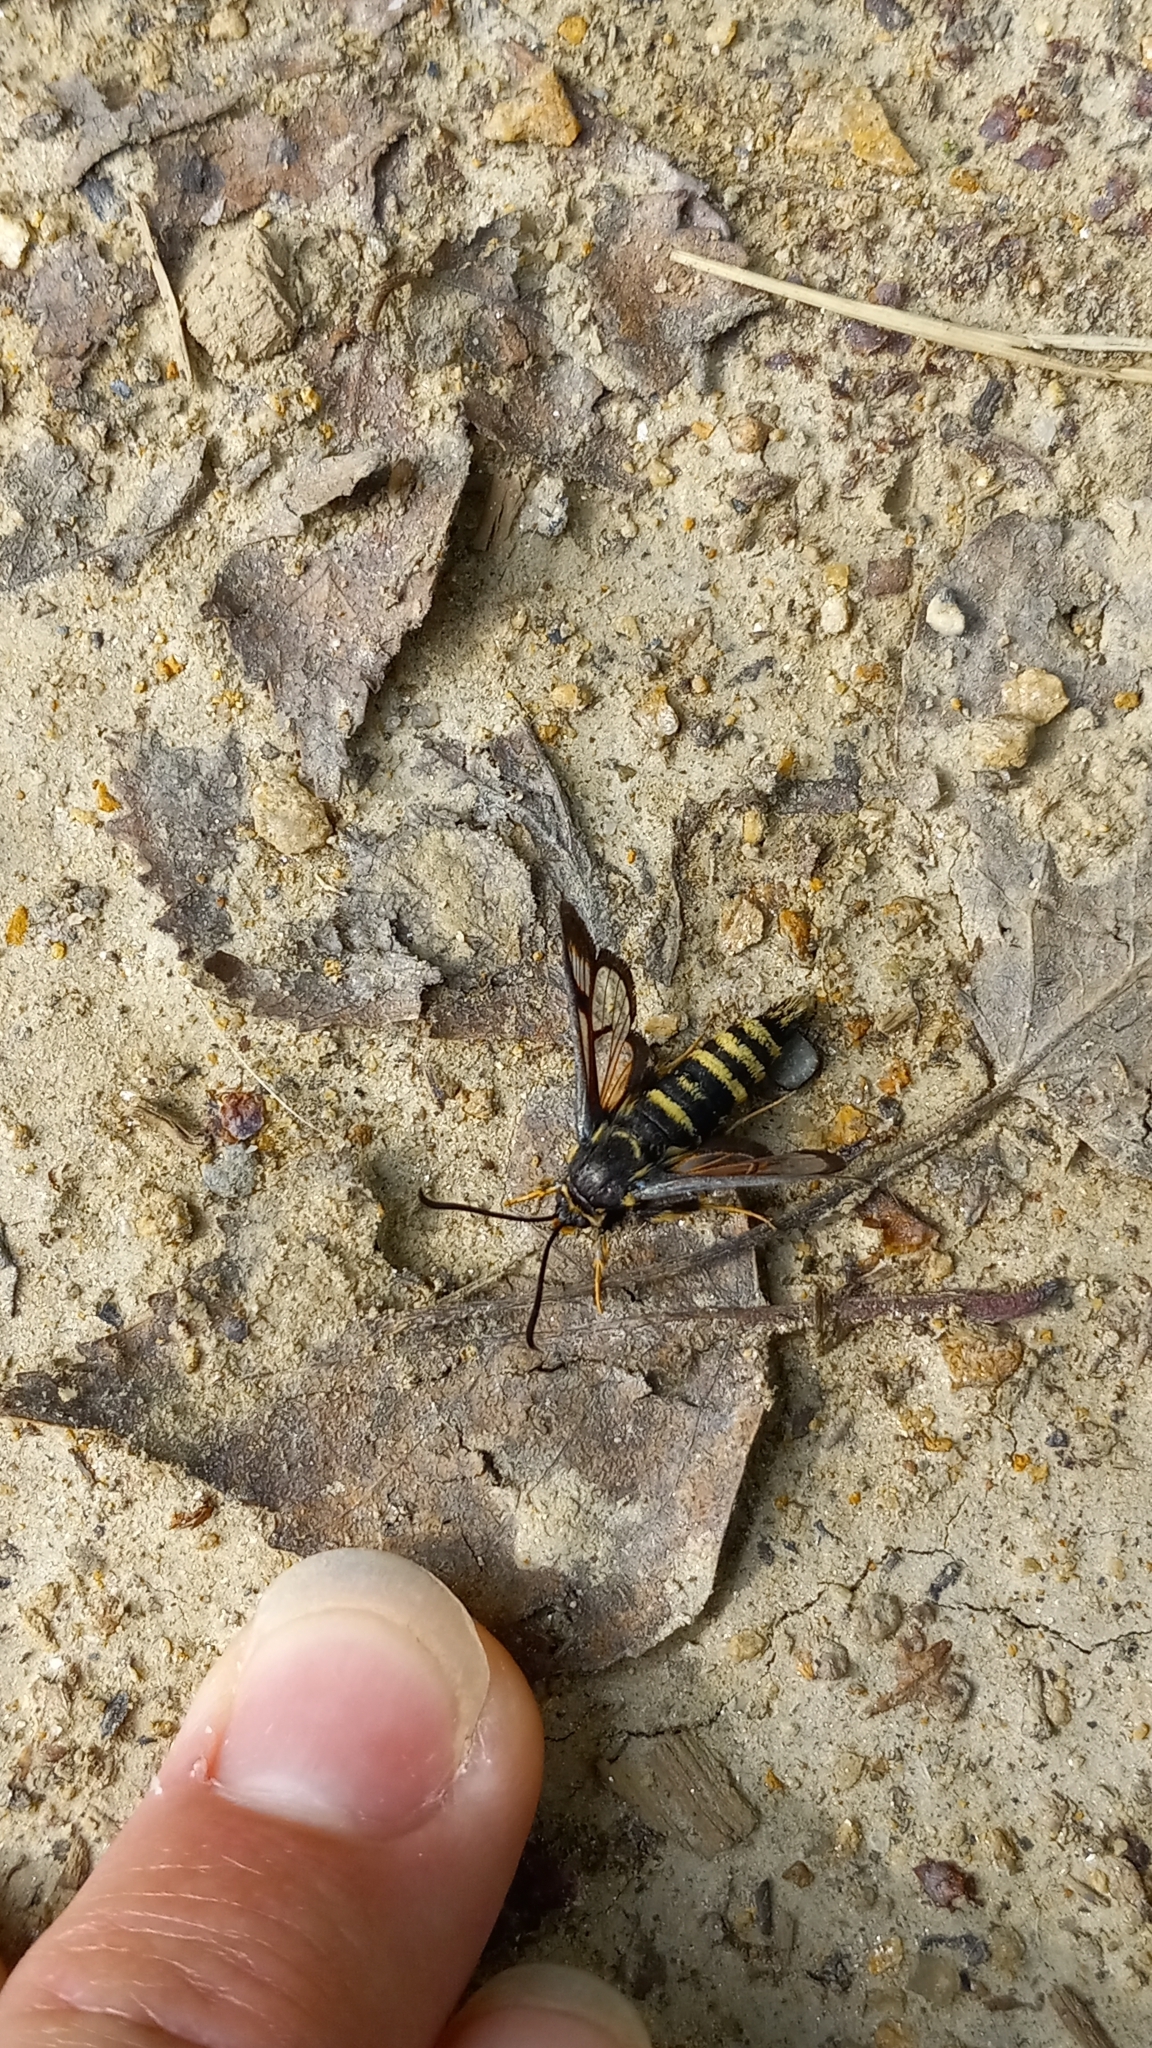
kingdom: Animalia
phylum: Arthropoda
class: Insecta
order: Lepidoptera
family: Sesiidae
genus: Albuna
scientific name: Albuna pyramidalis
